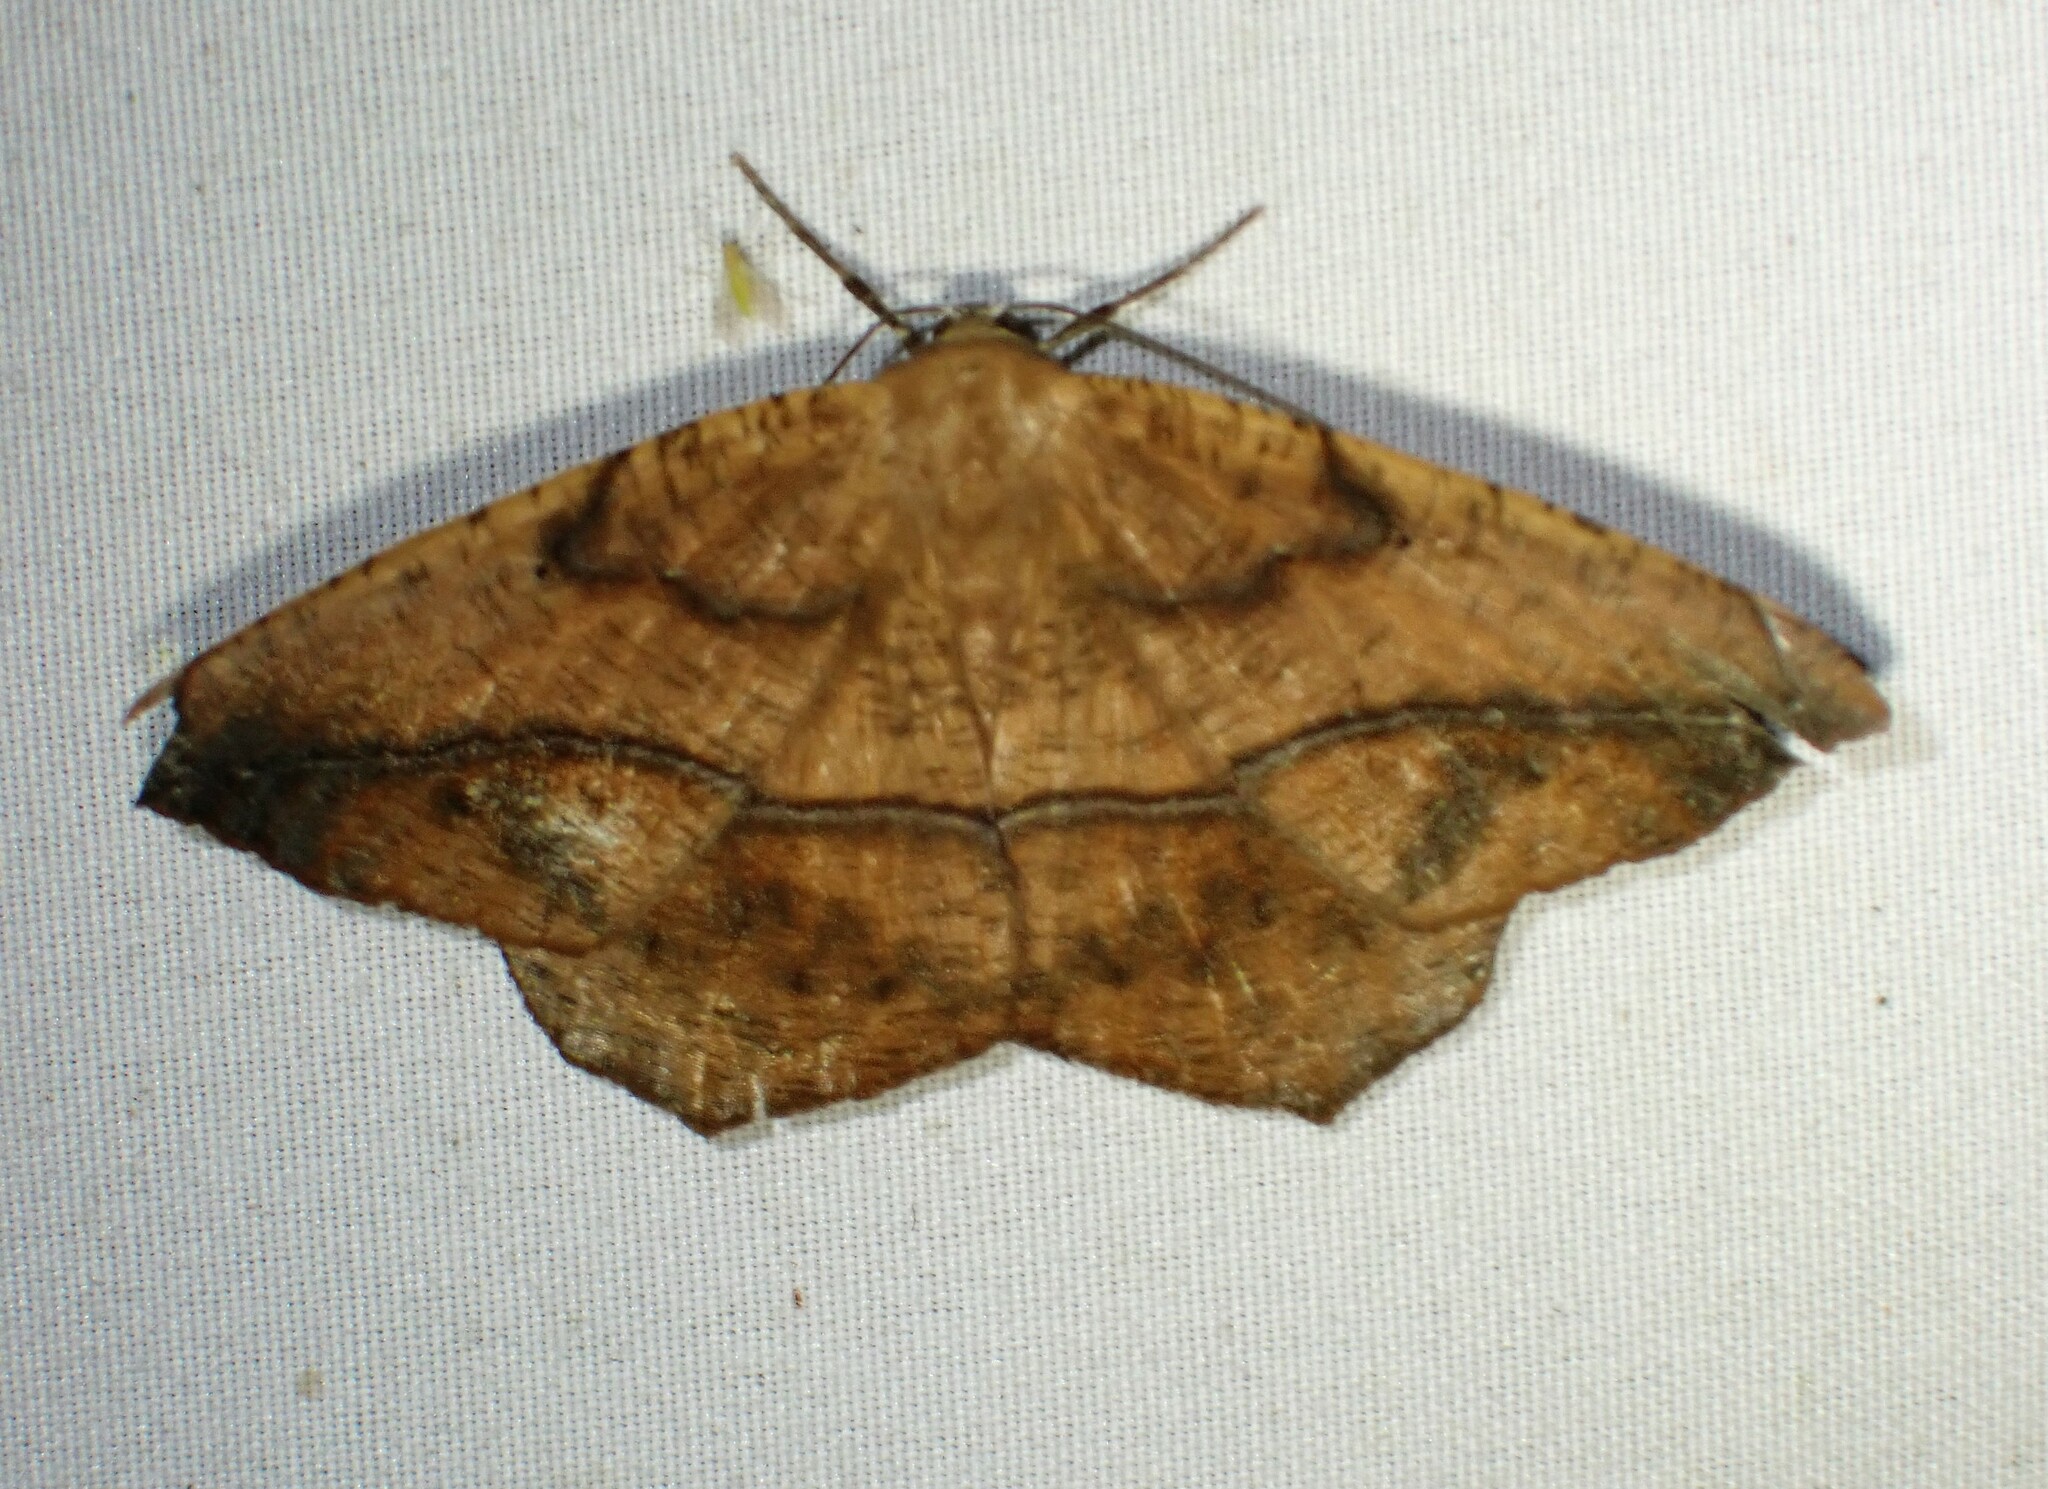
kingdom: Animalia
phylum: Arthropoda
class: Insecta
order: Lepidoptera
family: Geometridae
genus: Prochoerodes
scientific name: Prochoerodes lineola
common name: Large maple spanworm
